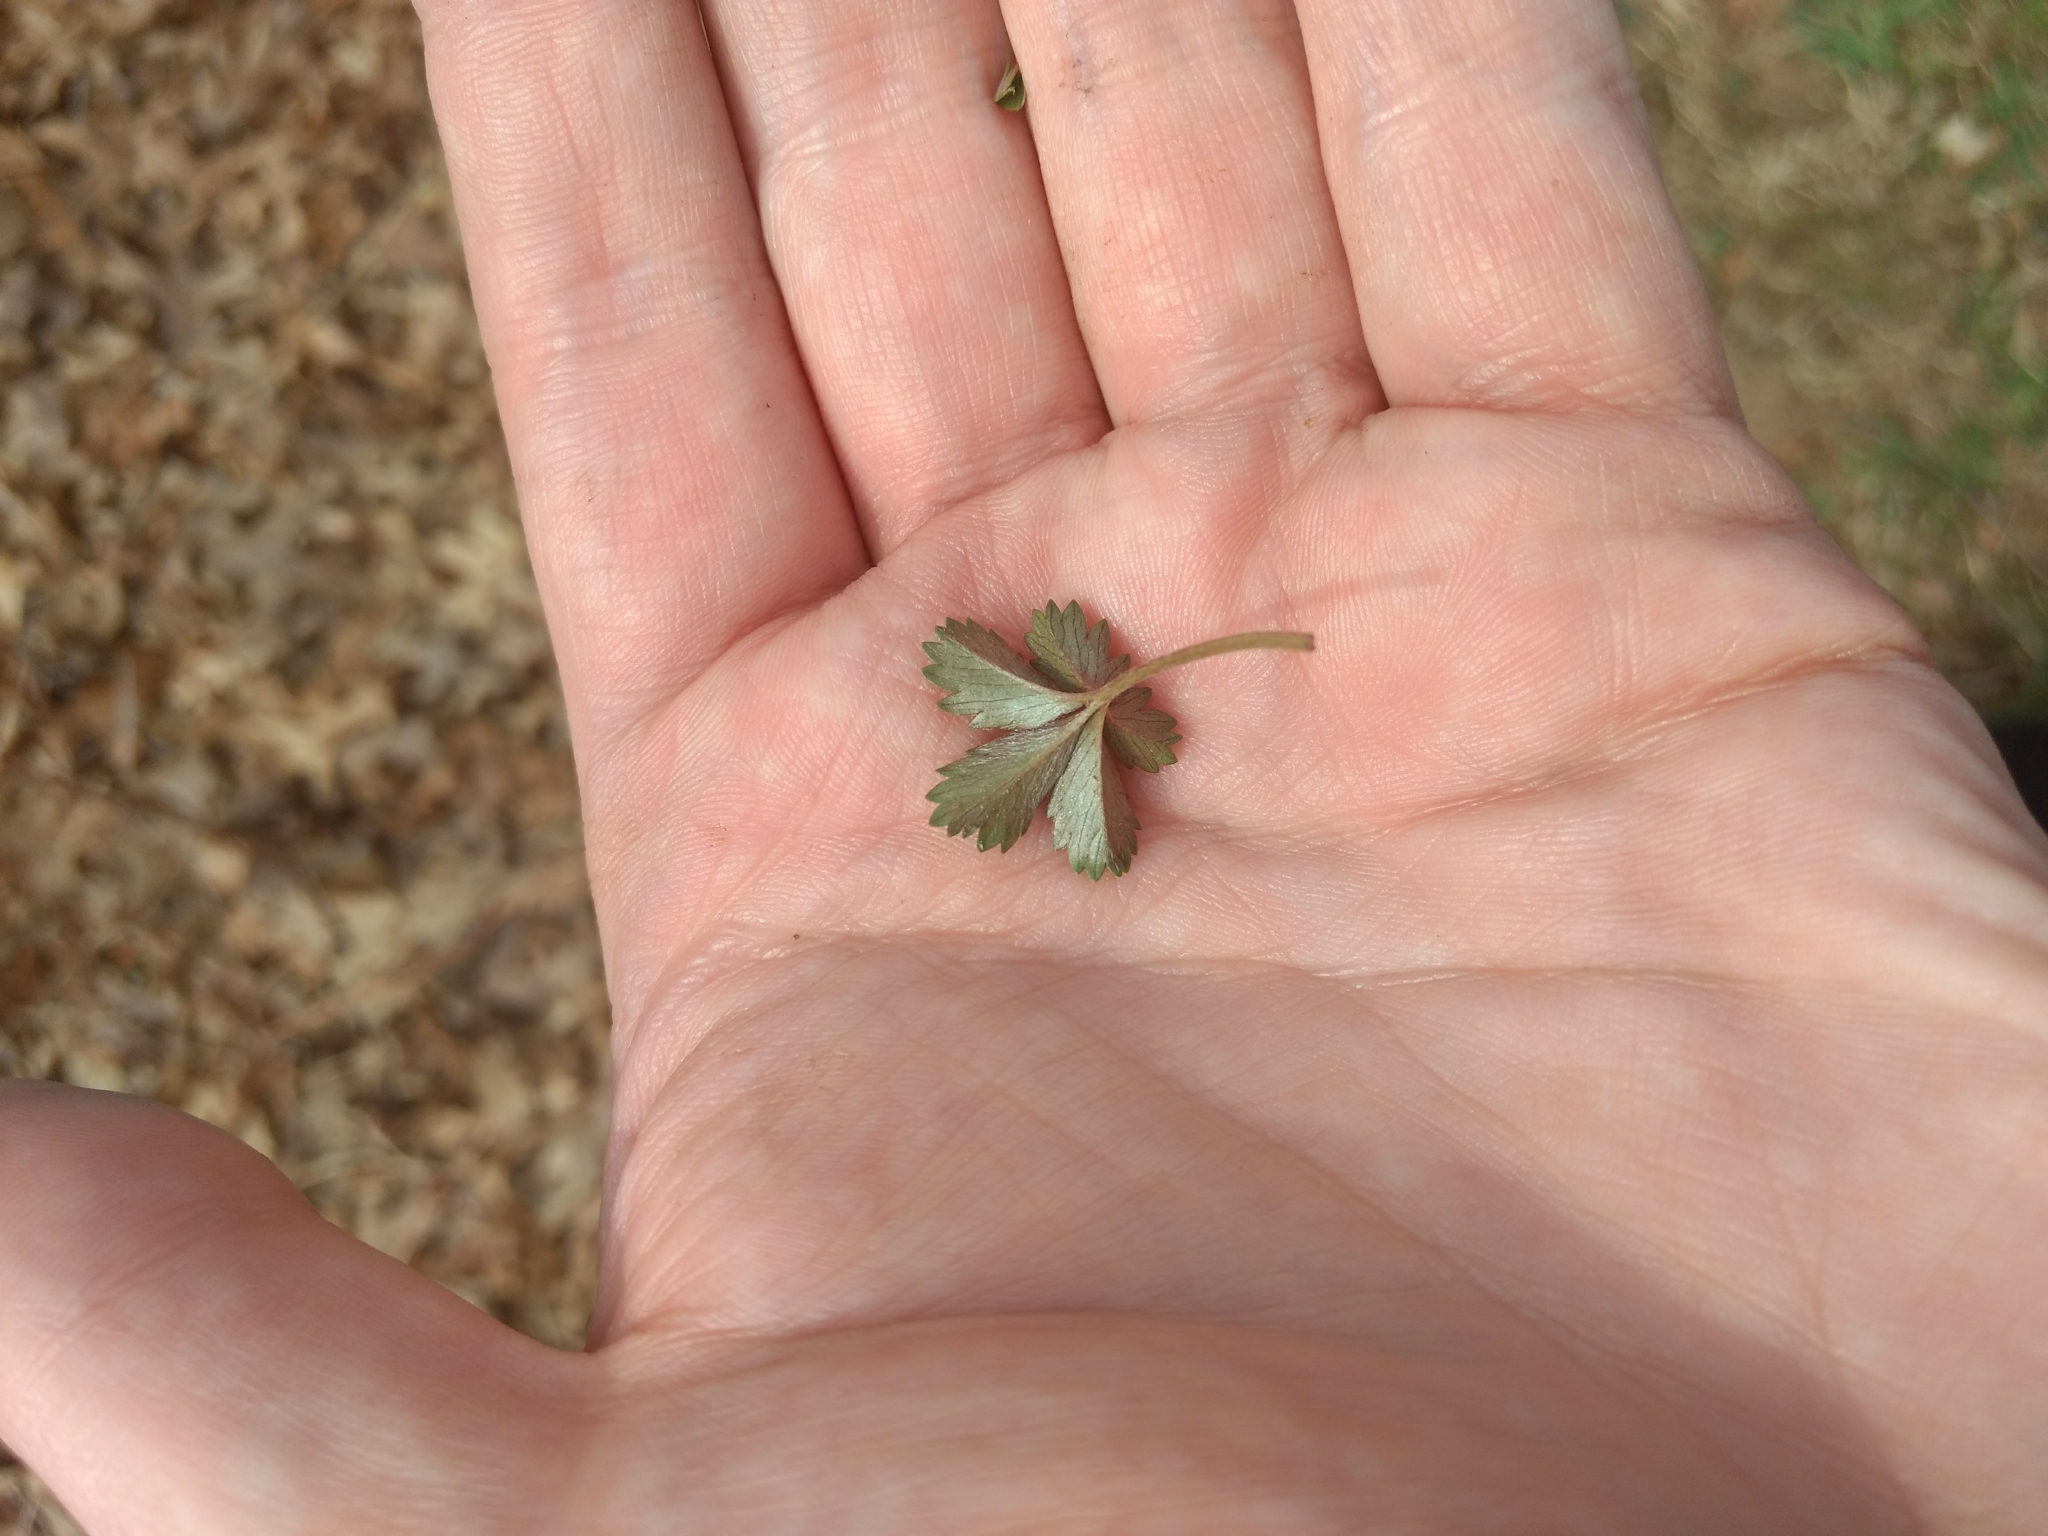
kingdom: Plantae
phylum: Tracheophyta
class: Magnoliopsida
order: Rosales
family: Rosaceae
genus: Potentilla
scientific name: Potentilla canadensis
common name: Canada cinquefoil
